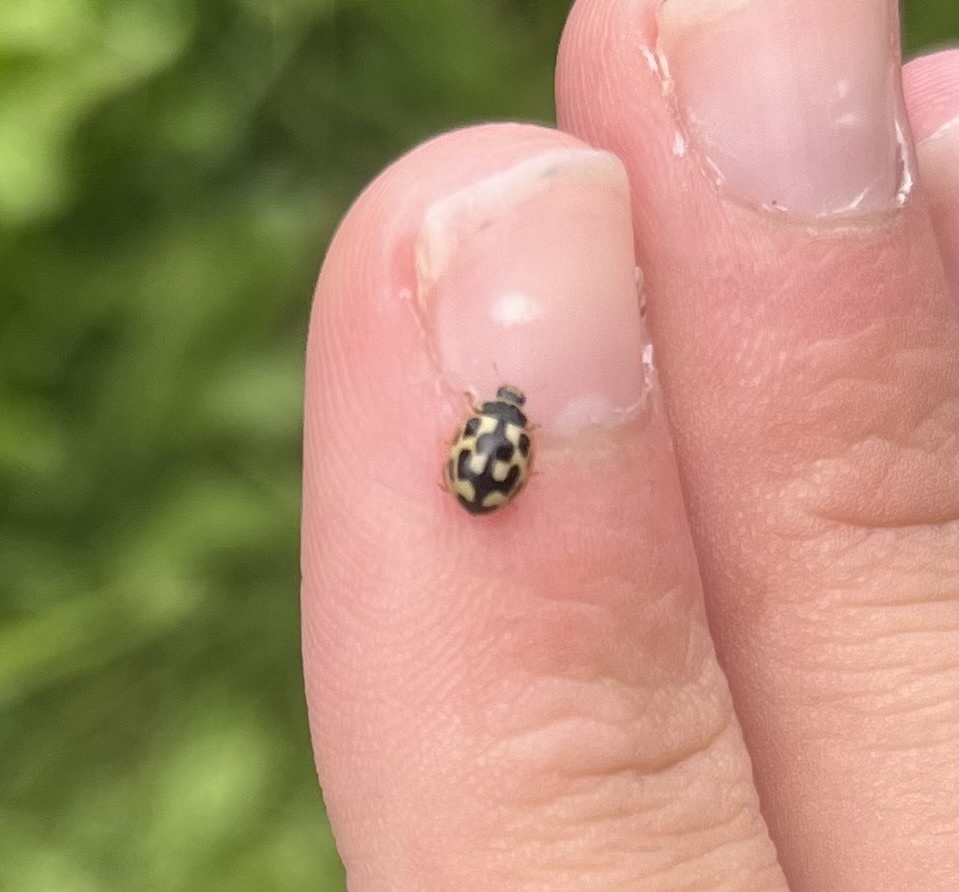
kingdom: Animalia
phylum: Arthropoda
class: Insecta
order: Coleoptera
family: Coccinellidae
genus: Propylaea
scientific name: Propylaea quatuordecimpunctata
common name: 14-spotted ladybird beetle
